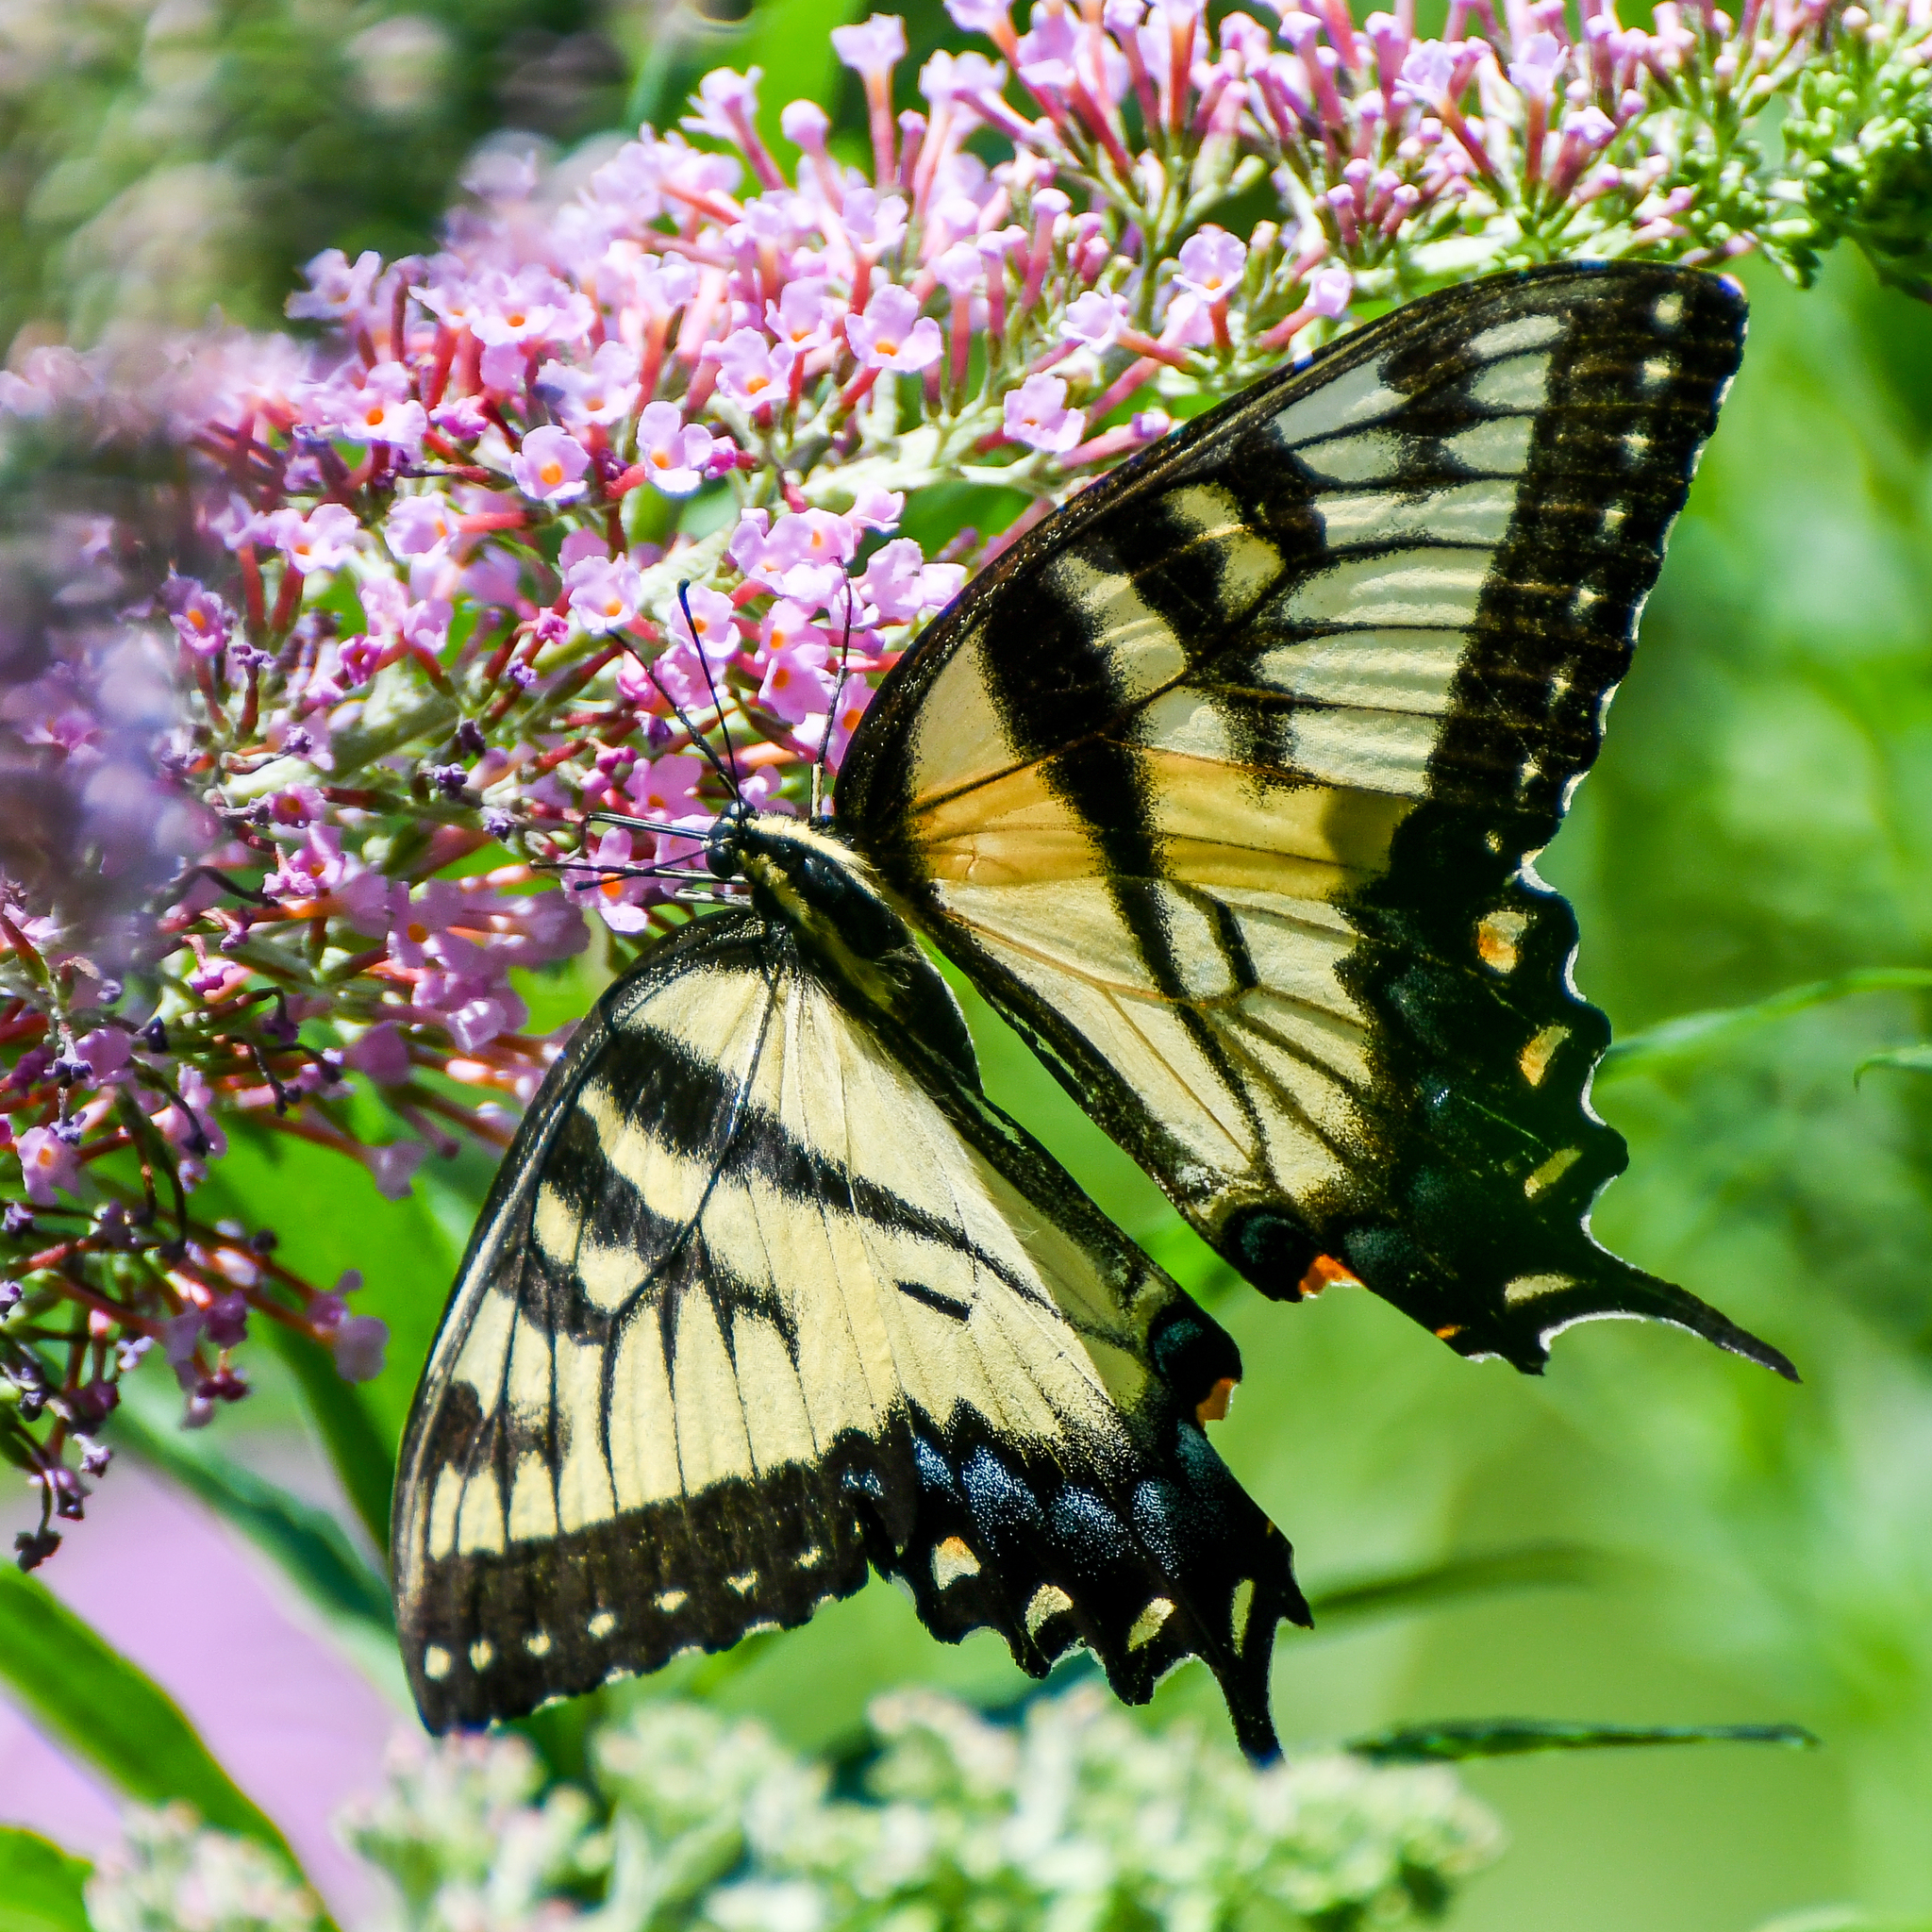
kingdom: Animalia
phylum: Arthropoda
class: Insecta
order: Lepidoptera
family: Papilionidae
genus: Papilio
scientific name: Papilio glaucus
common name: Tiger swallowtail
